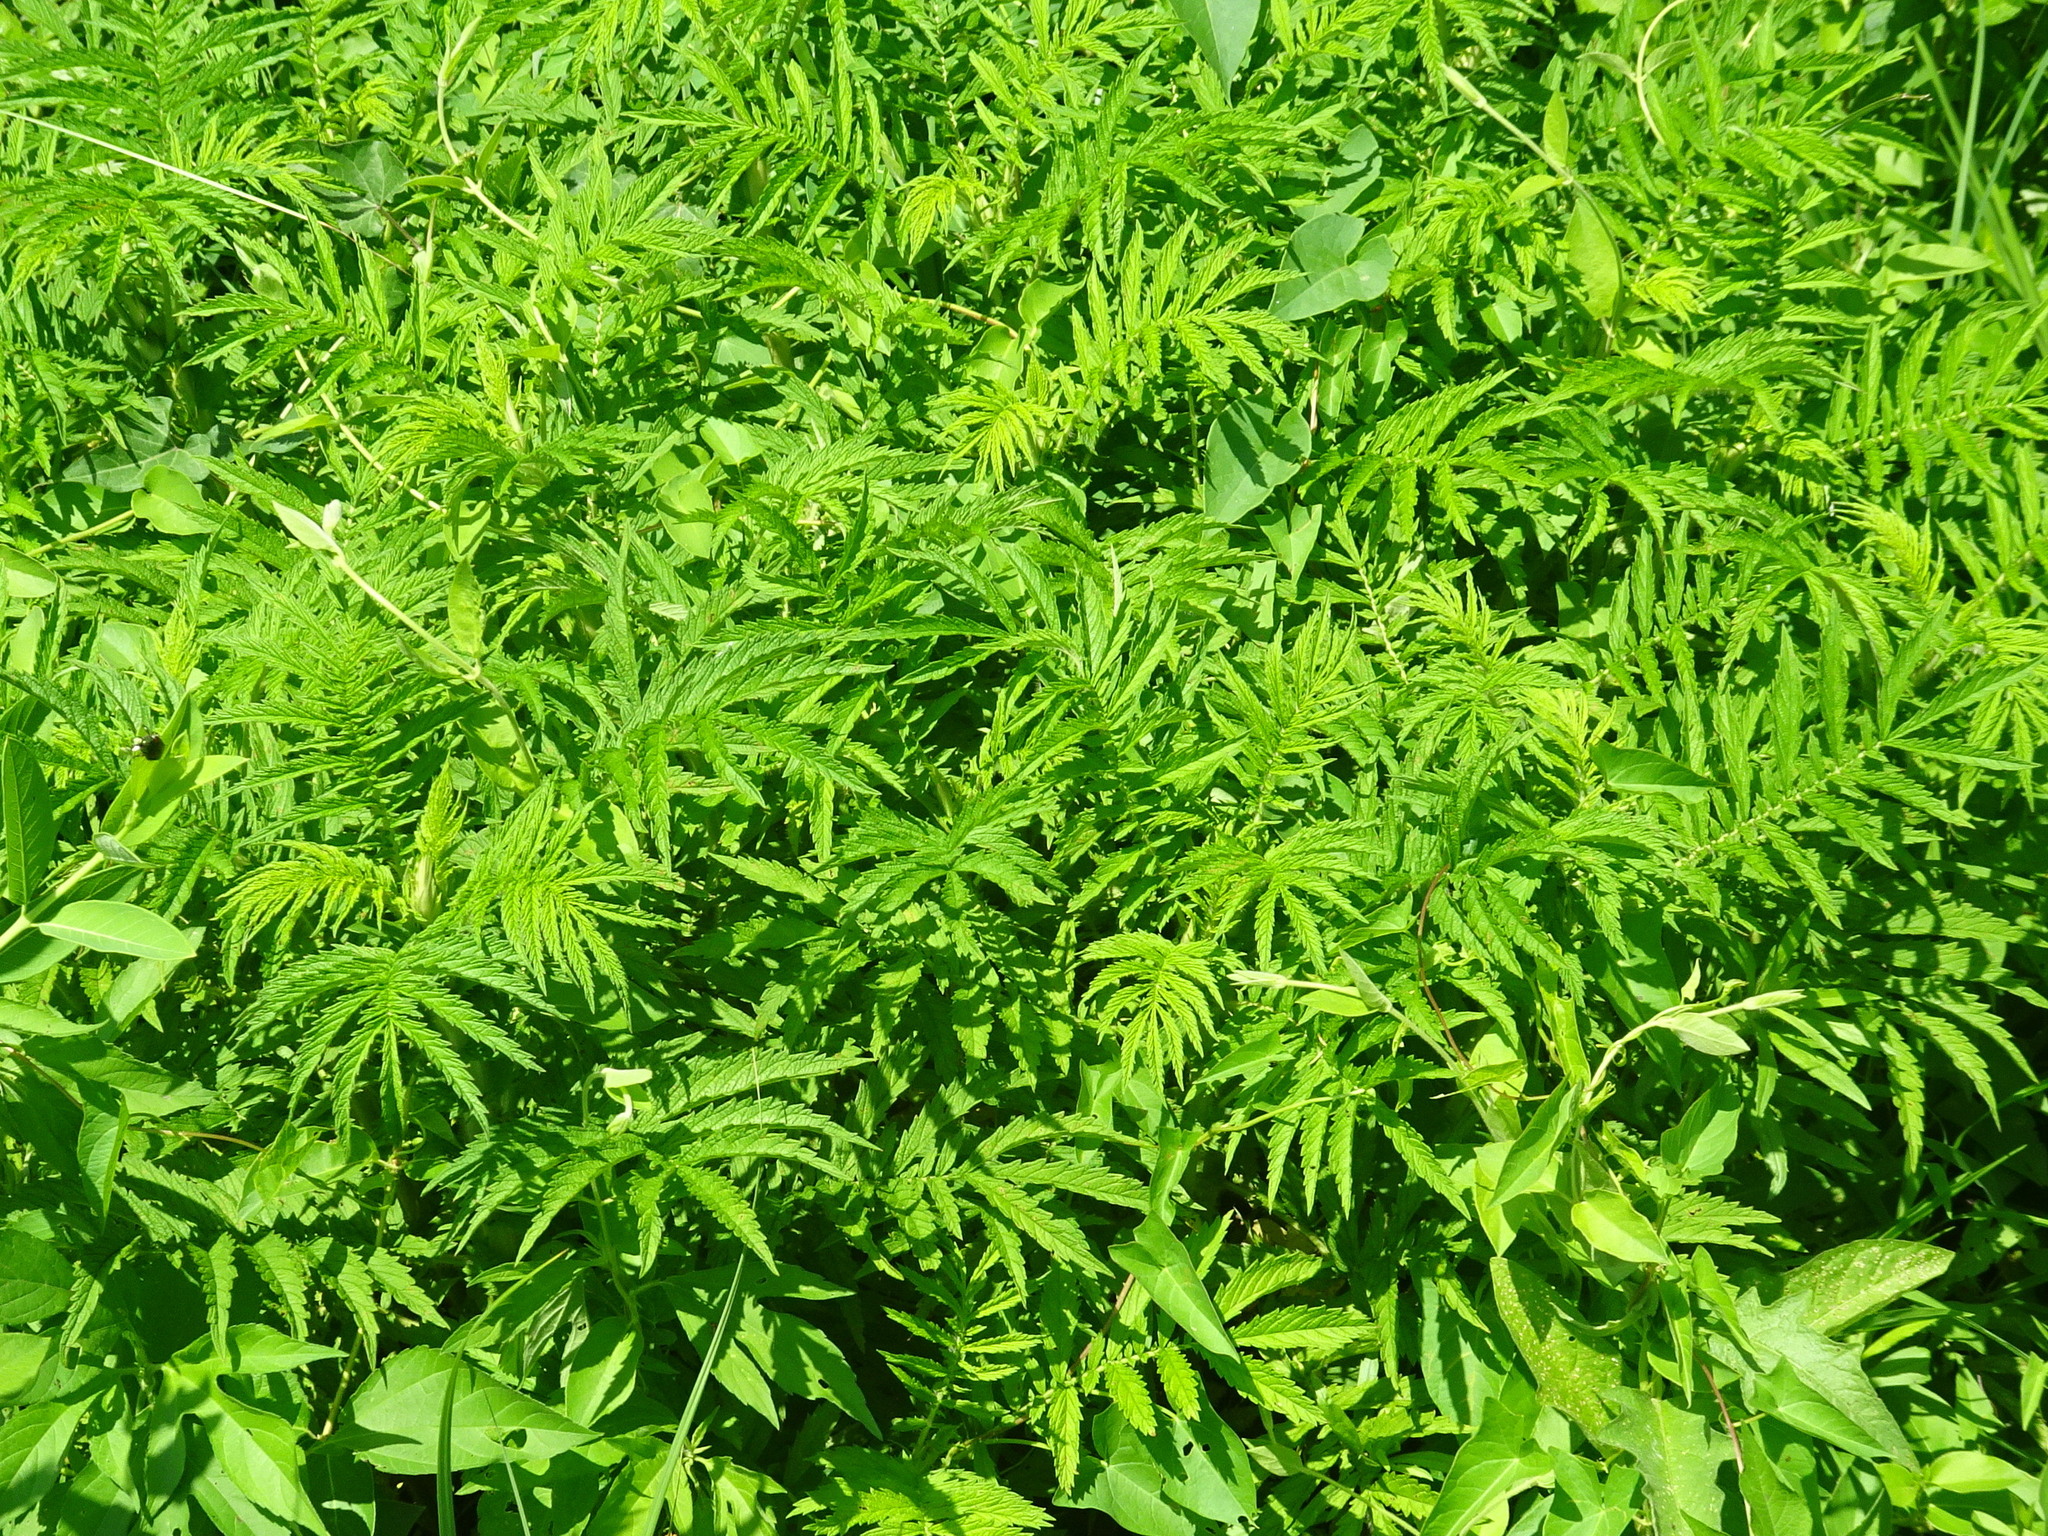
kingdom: Plantae
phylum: Tracheophyta
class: Magnoliopsida
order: Rosales
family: Rosaceae
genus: Agrimonia
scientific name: Agrimonia parviflora
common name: Harvest-lice
